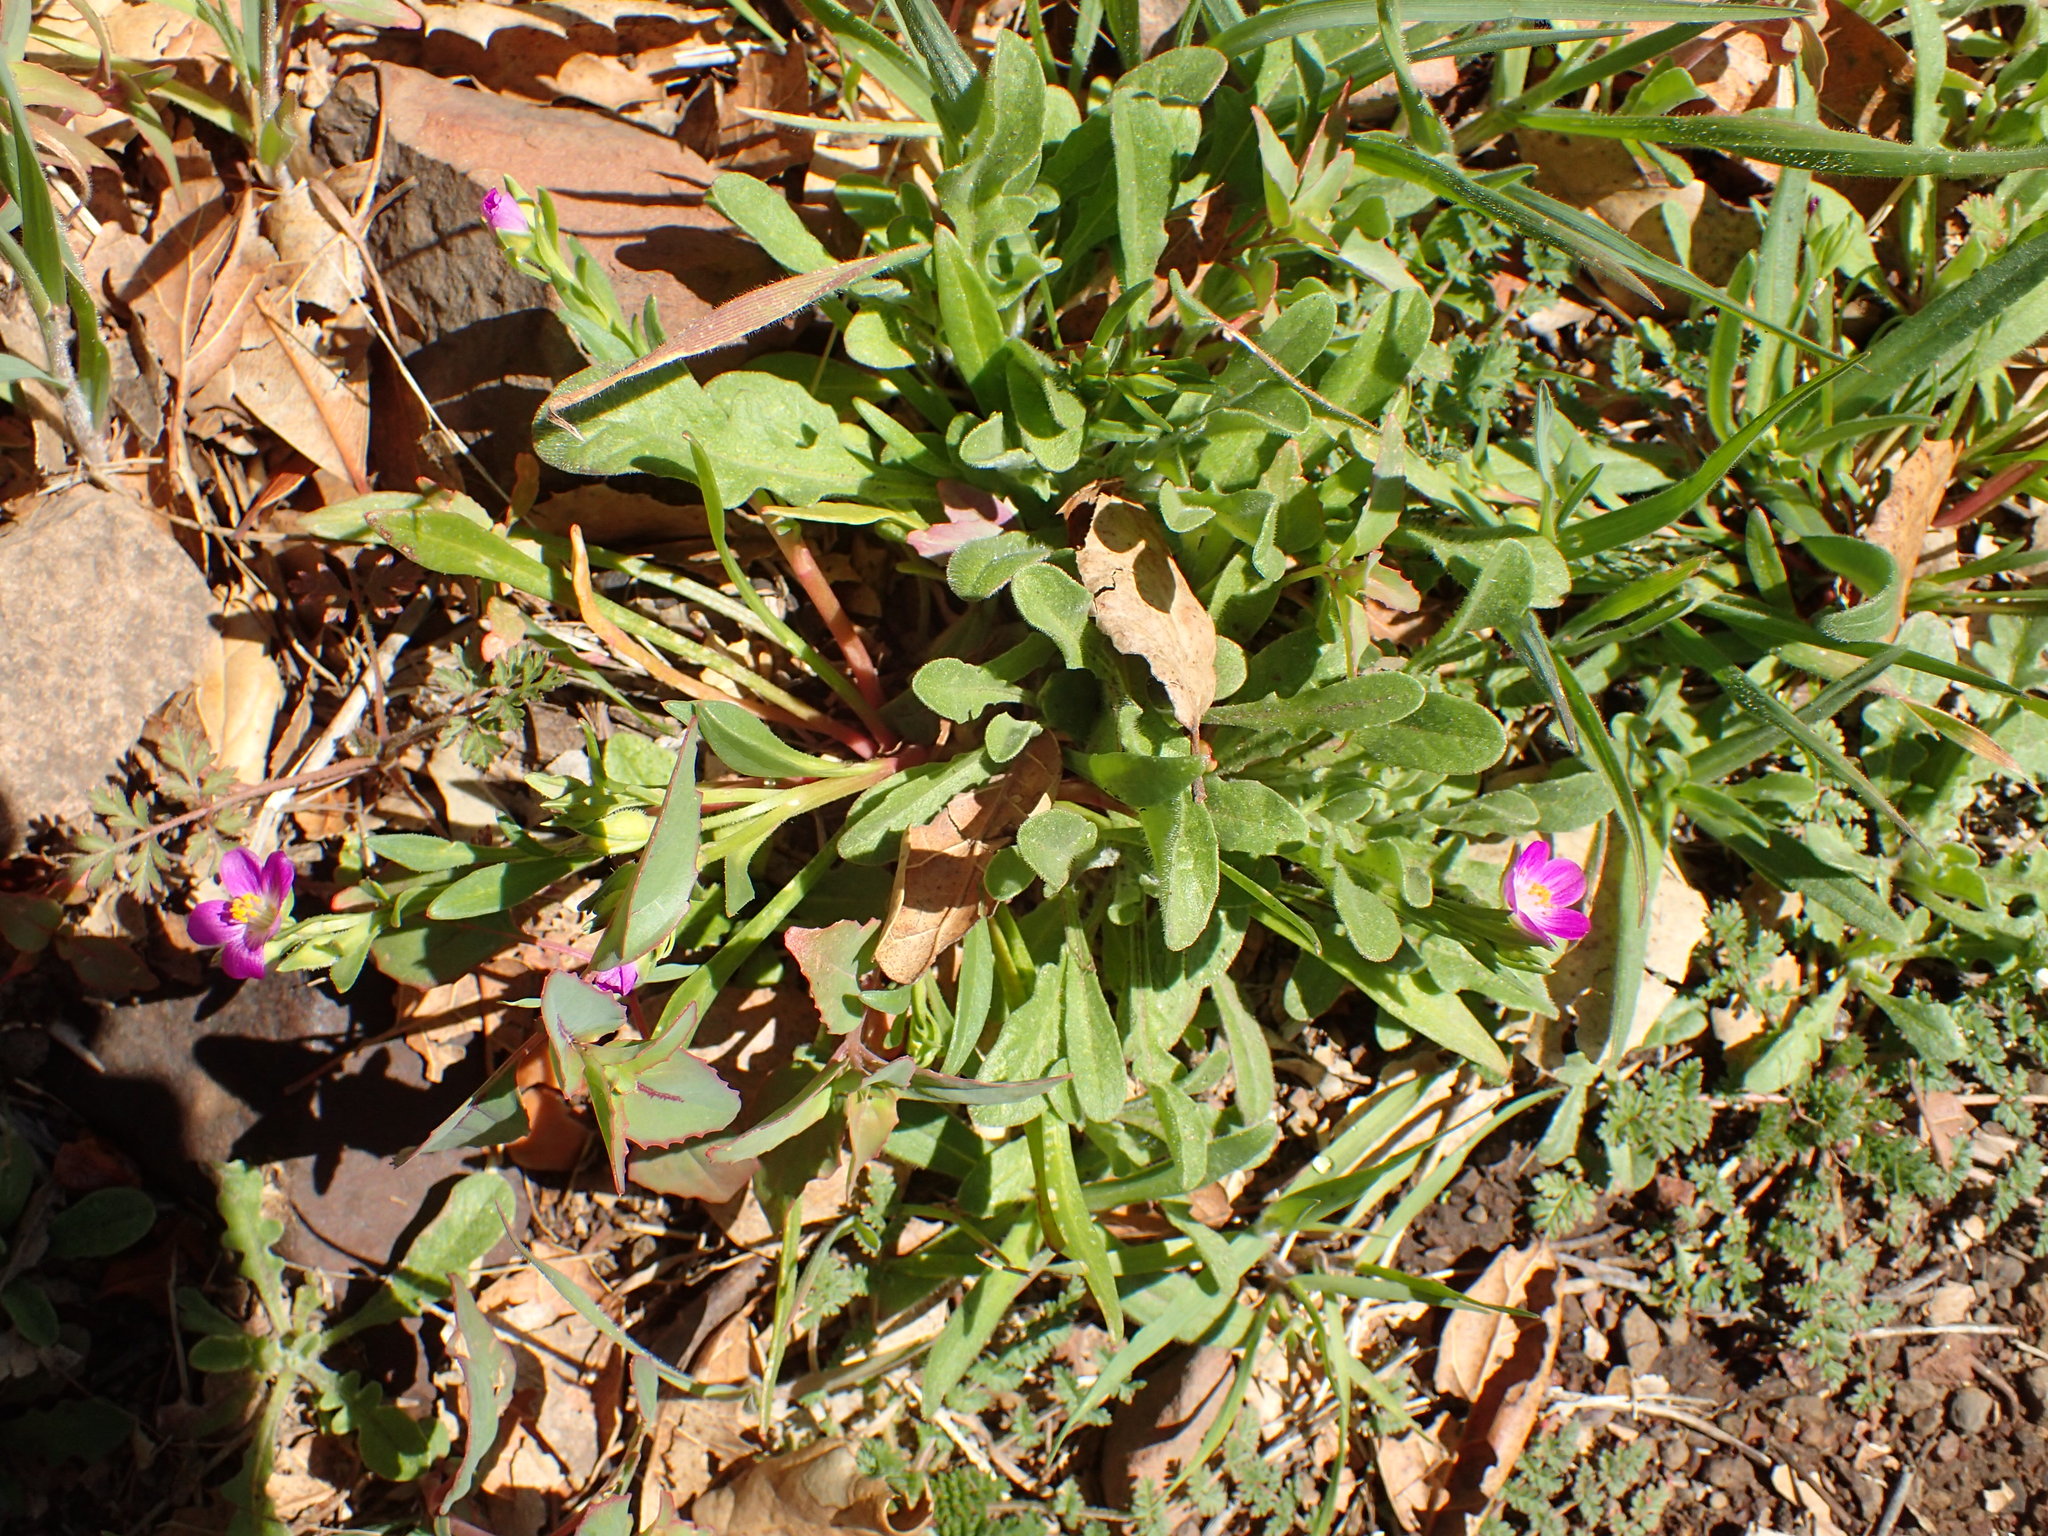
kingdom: Plantae
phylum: Tracheophyta
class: Magnoliopsida
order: Caryophyllales
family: Montiaceae
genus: Calandrinia
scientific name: Calandrinia menziesii
